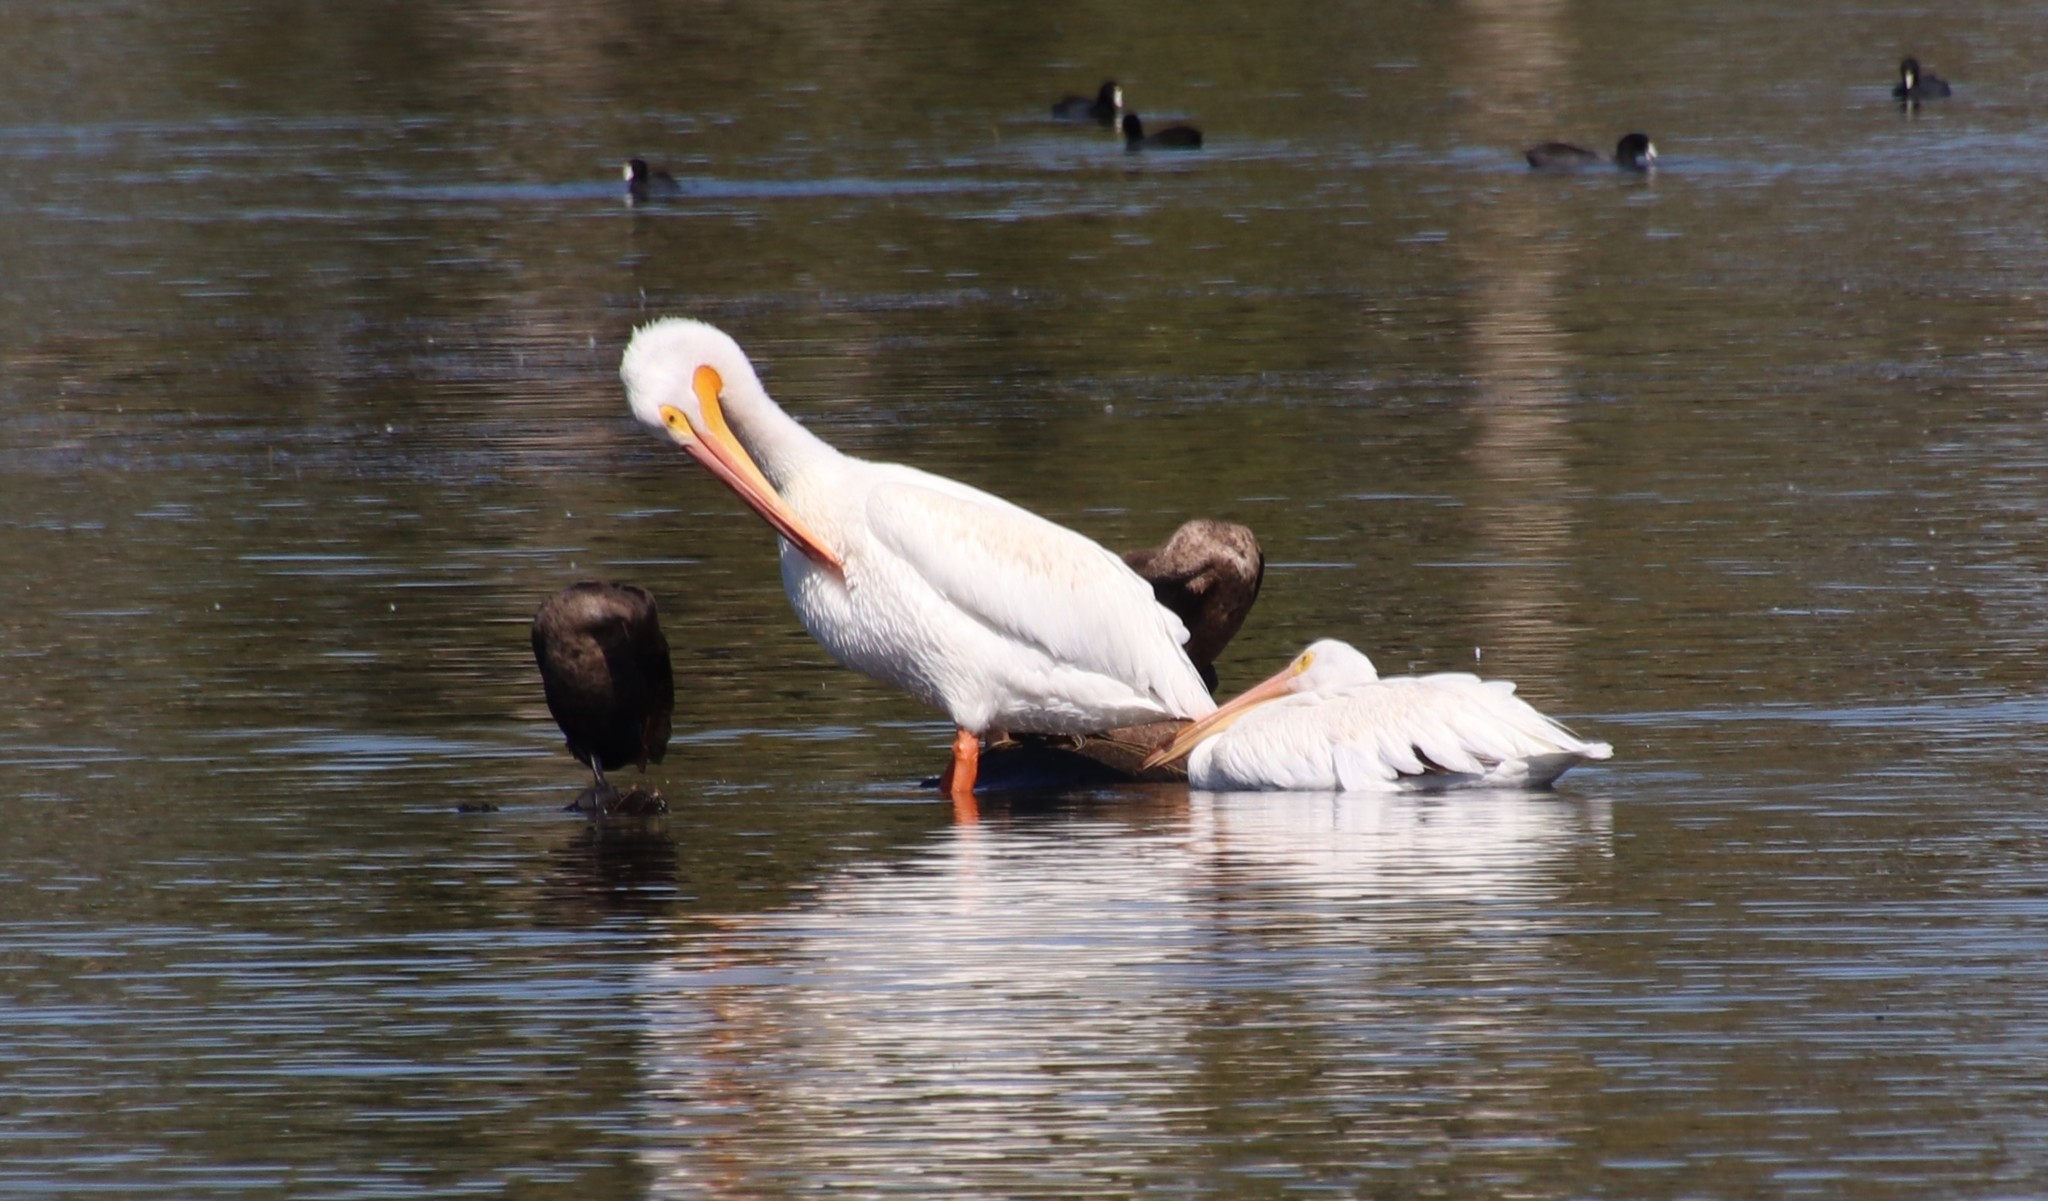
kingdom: Animalia
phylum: Chordata
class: Aves
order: Pelecaniformes
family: Pelecanidae
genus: Pelecanus
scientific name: Pelecanus erythrorhynchos
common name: American white pelican
